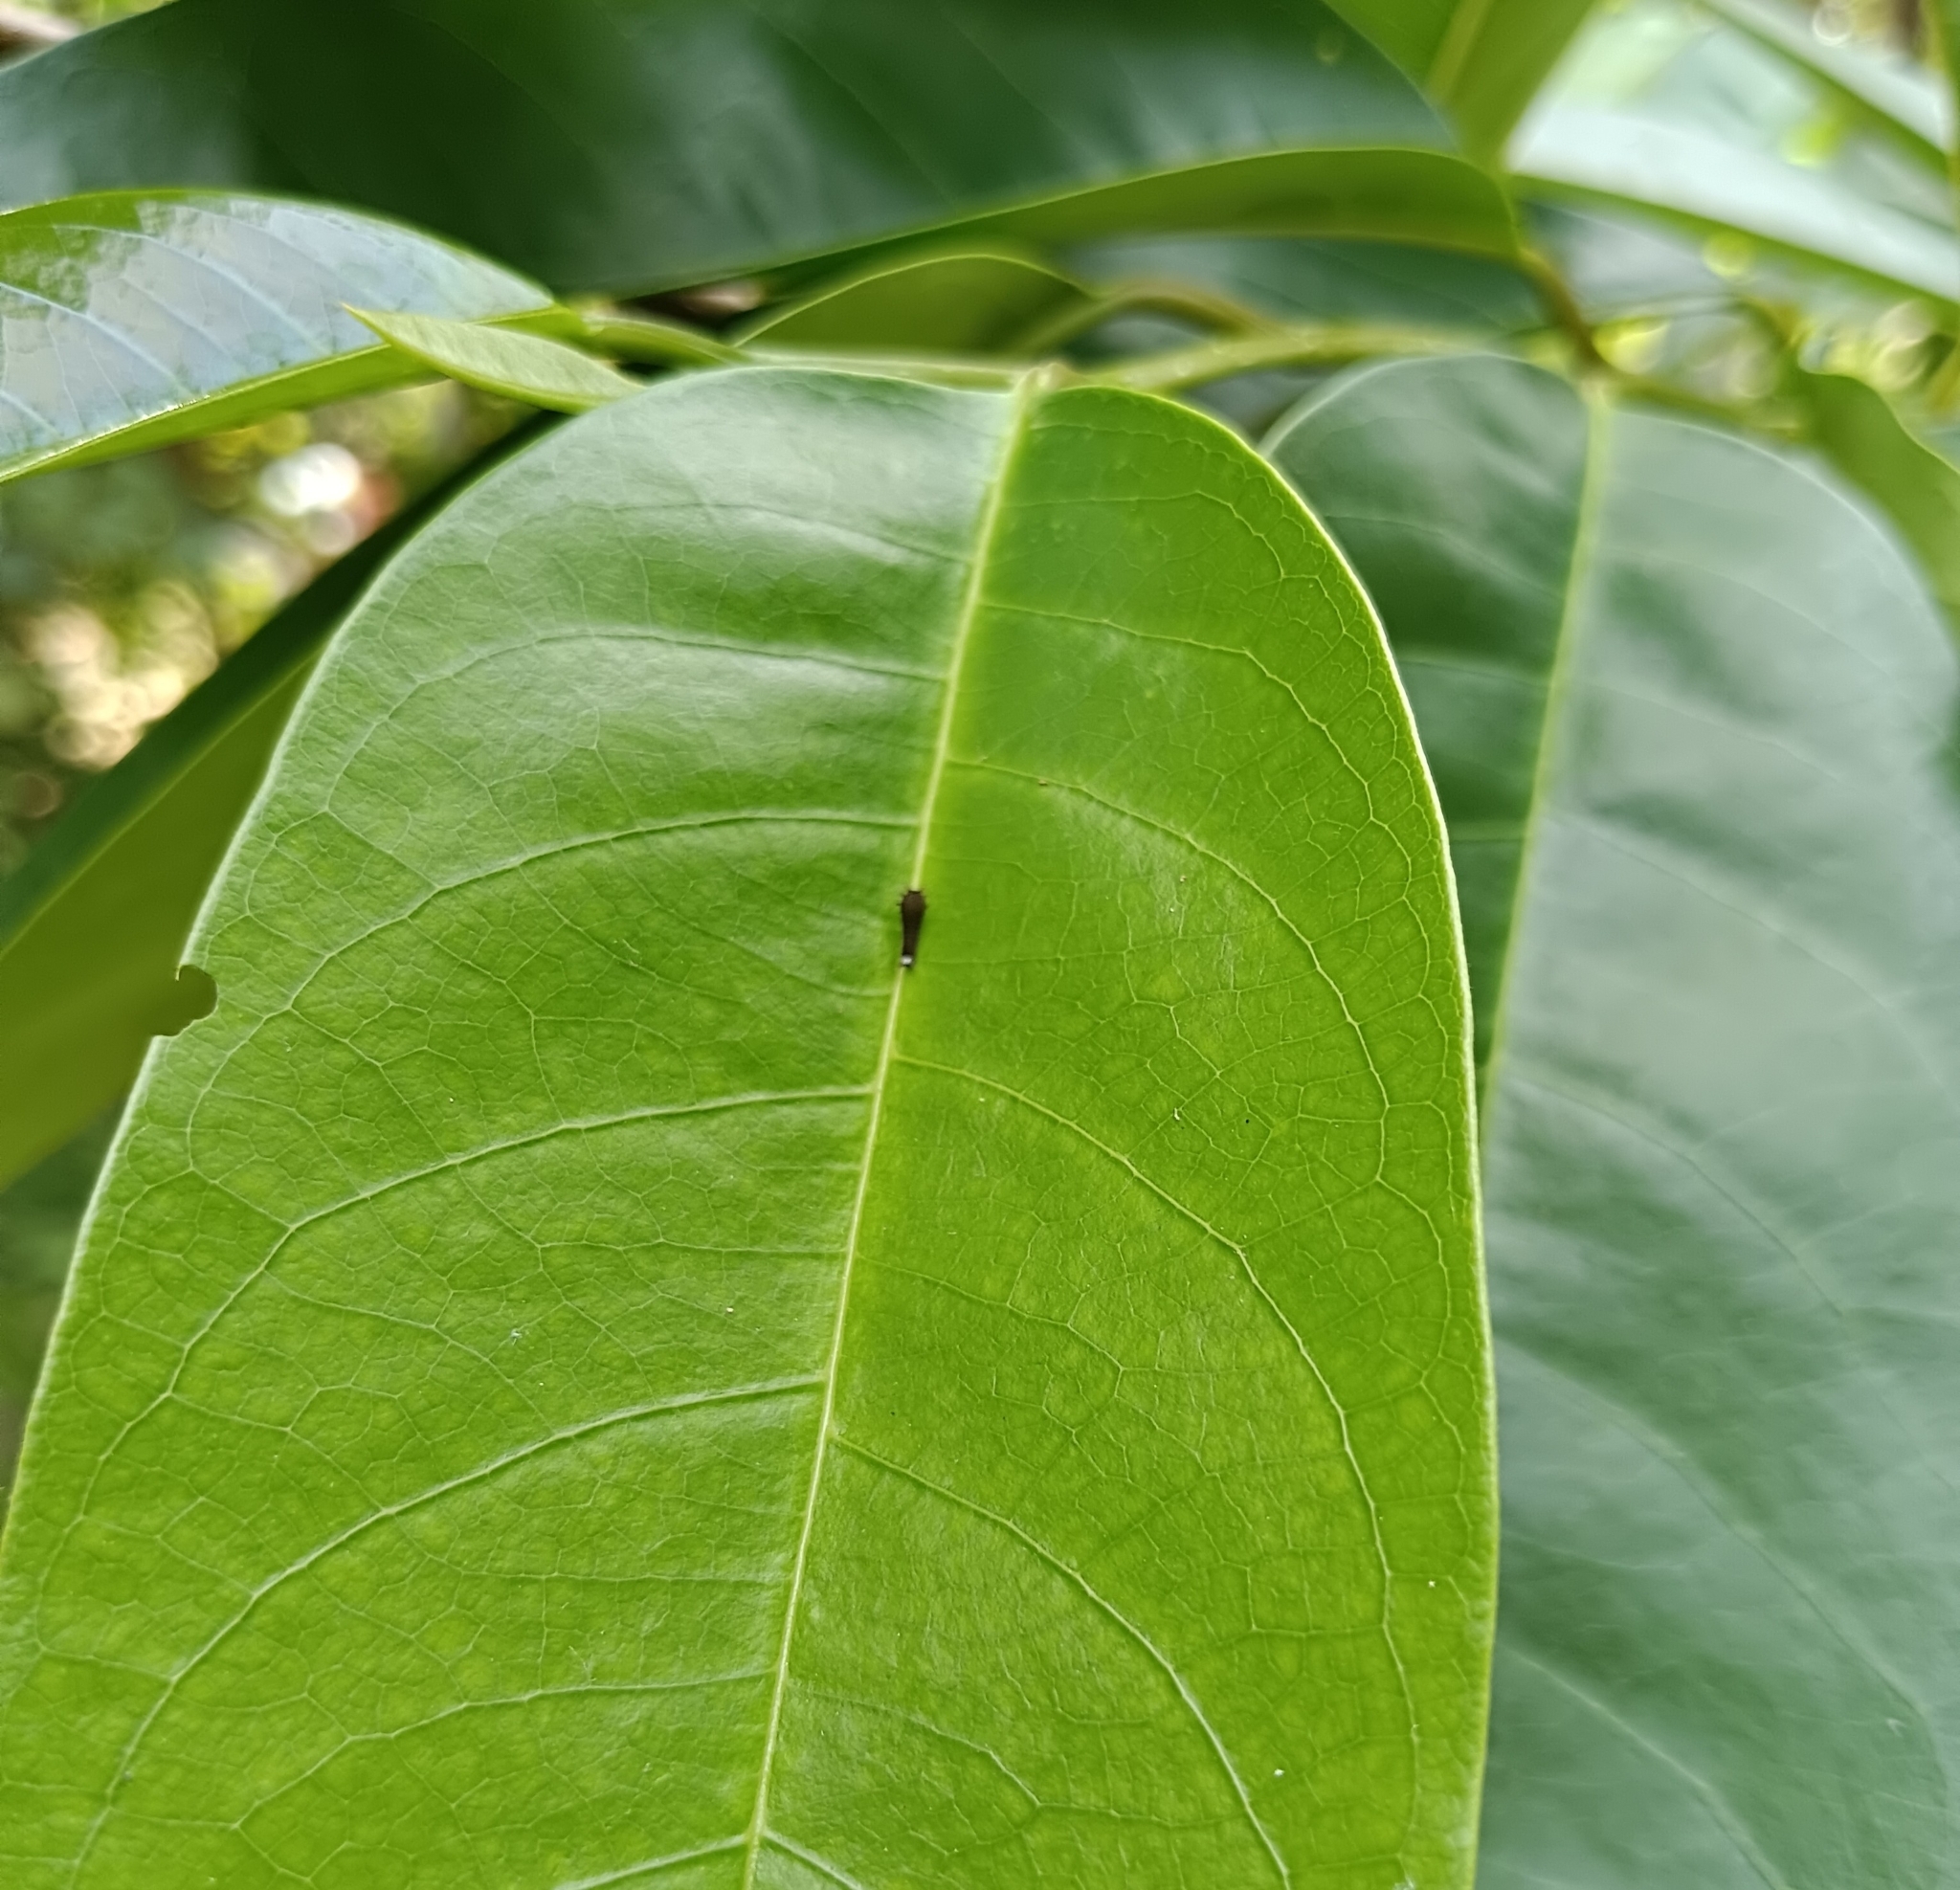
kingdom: Animalia
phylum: Arthropoda
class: Insecta
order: Lepidoptera
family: Papilionidae
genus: Graphium
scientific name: Graphium doson
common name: Common jay
